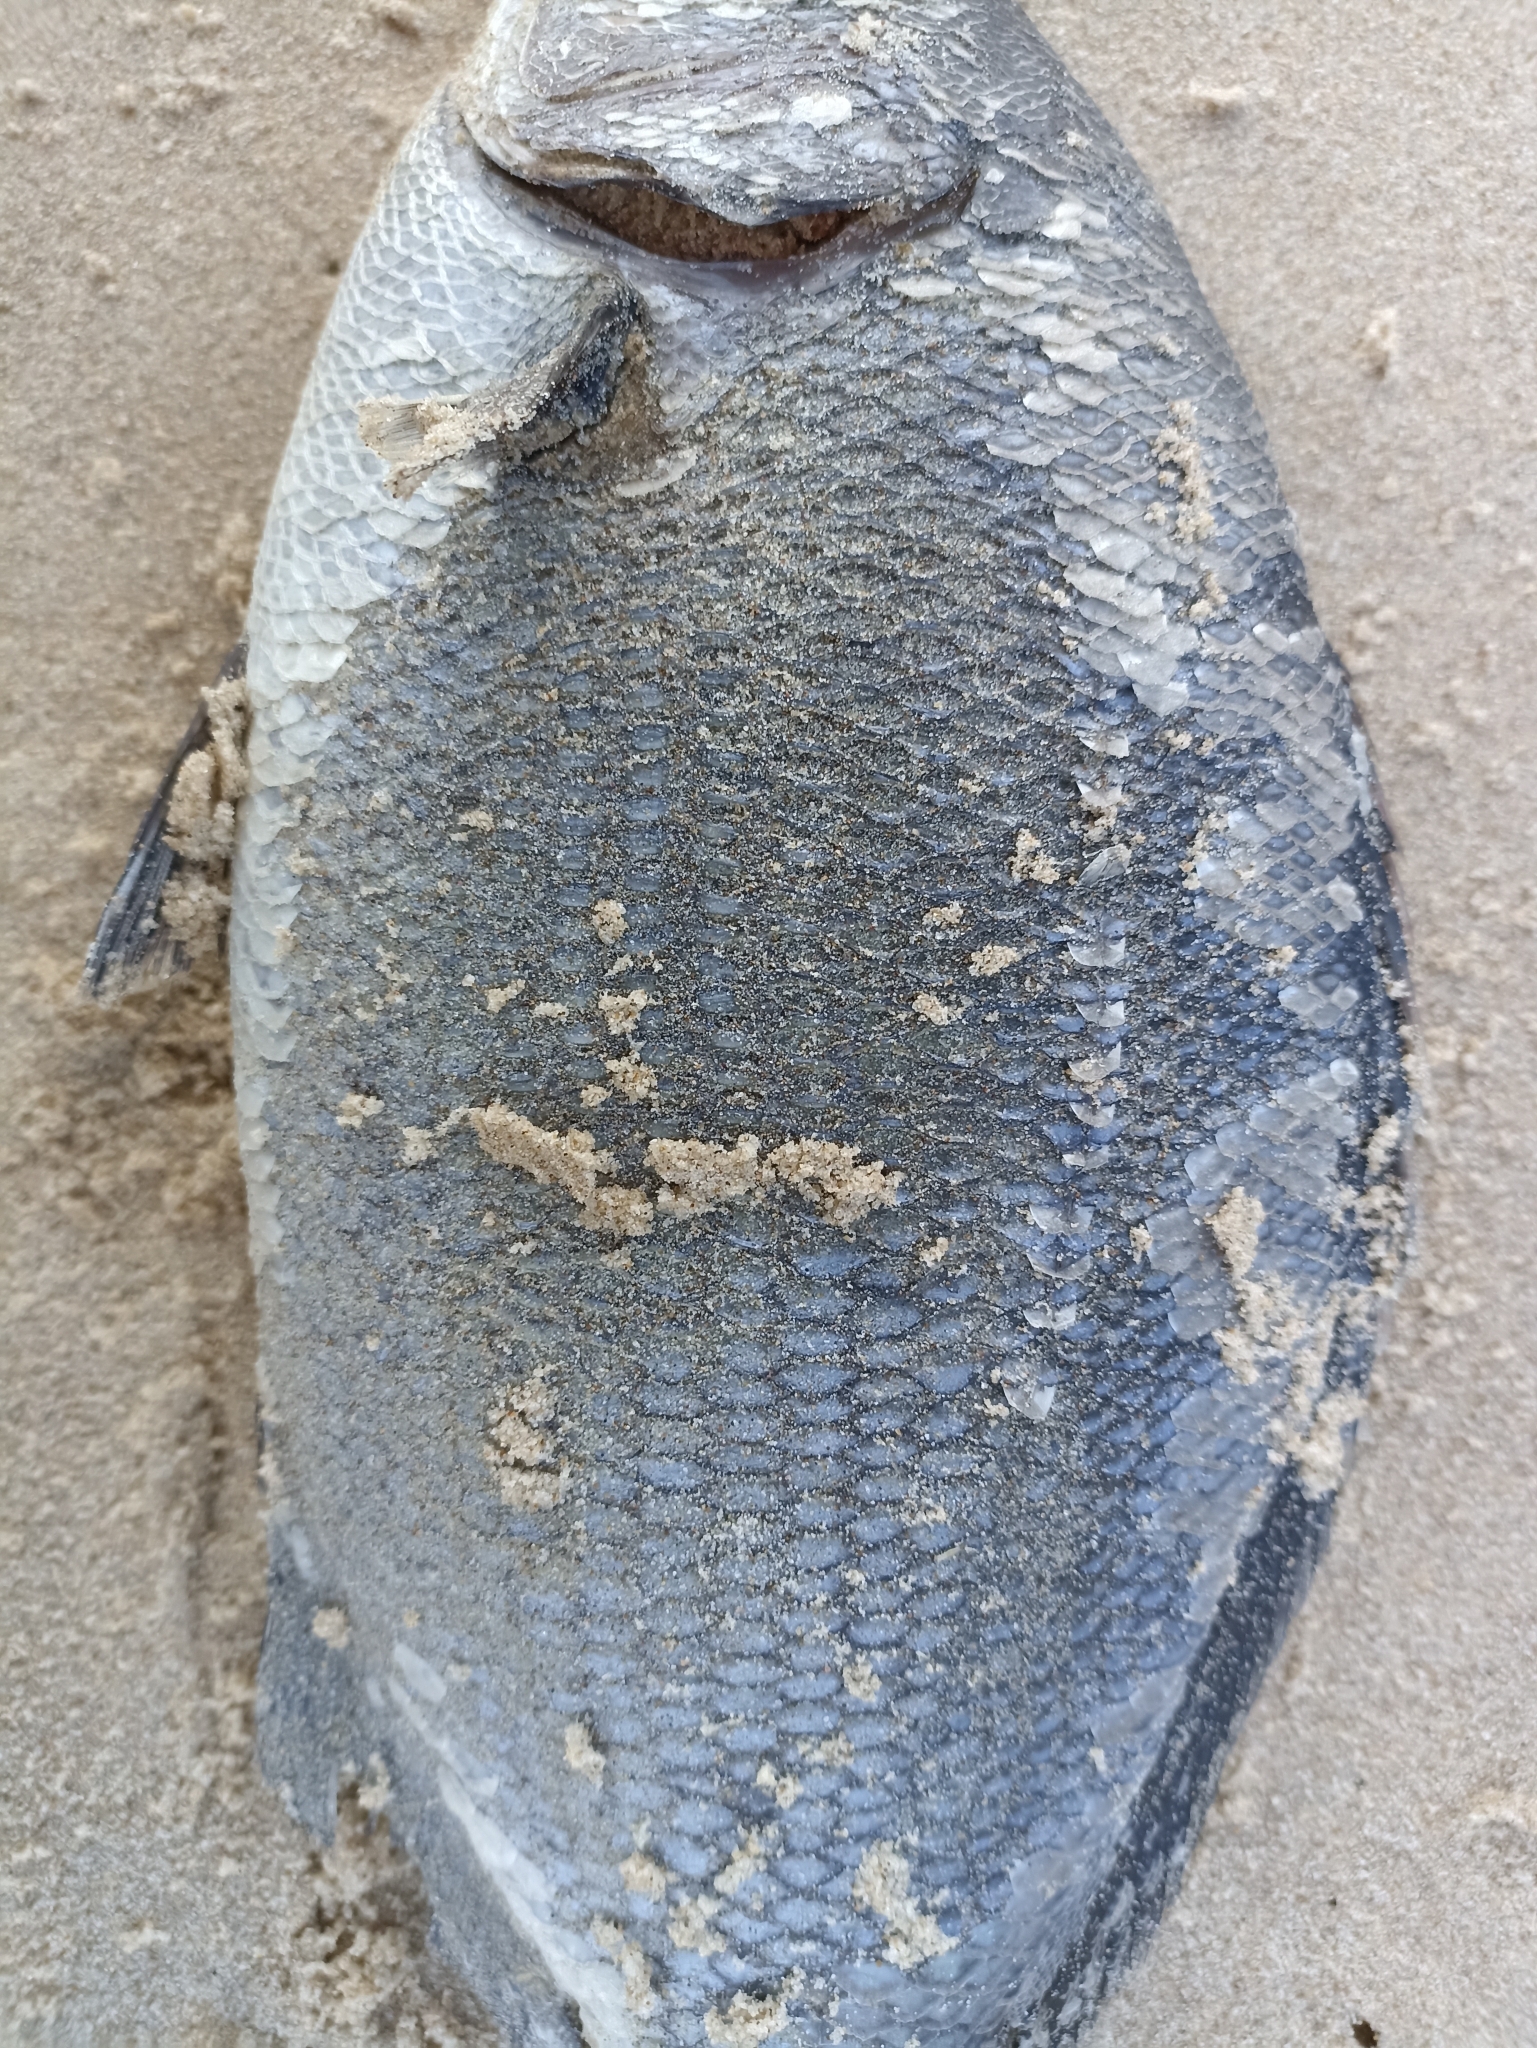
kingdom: Animalia
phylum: Chordata
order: Perciformes
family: Kyphosidae
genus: Kyphosus
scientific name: Kyphosus bigibbus
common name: Brown chub
